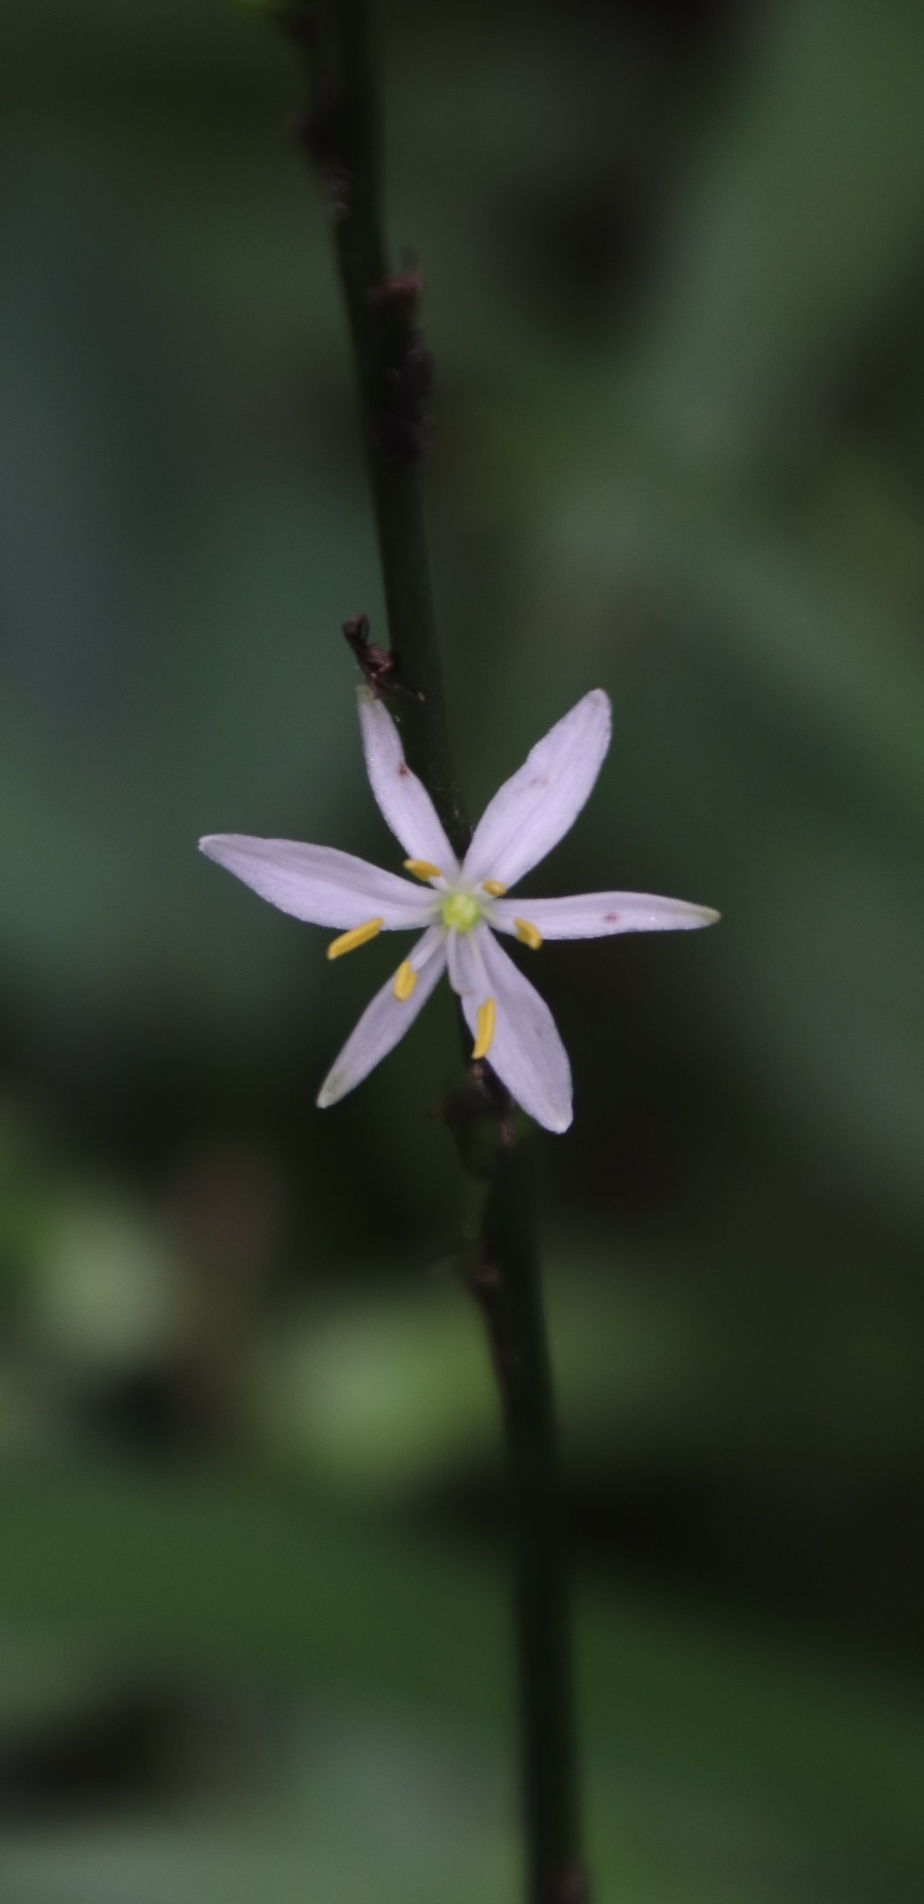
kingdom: Plantae
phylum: Tracheophyta
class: Liliopsida
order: Asparagales
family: Asparagaceae
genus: Chlorophytum
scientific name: Chlorophytum bowkeri
